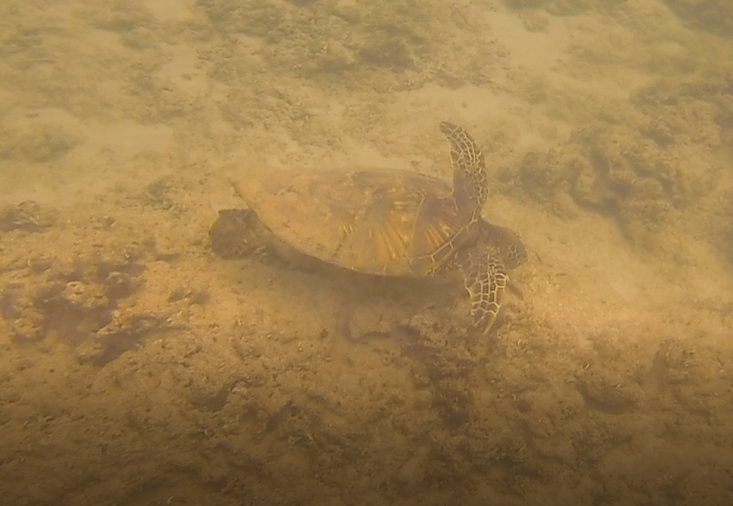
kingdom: Animalia
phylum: Chordata
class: Testudines
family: Cheloniidae
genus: Chelonia
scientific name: Chelonia mydas
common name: Green turtle
